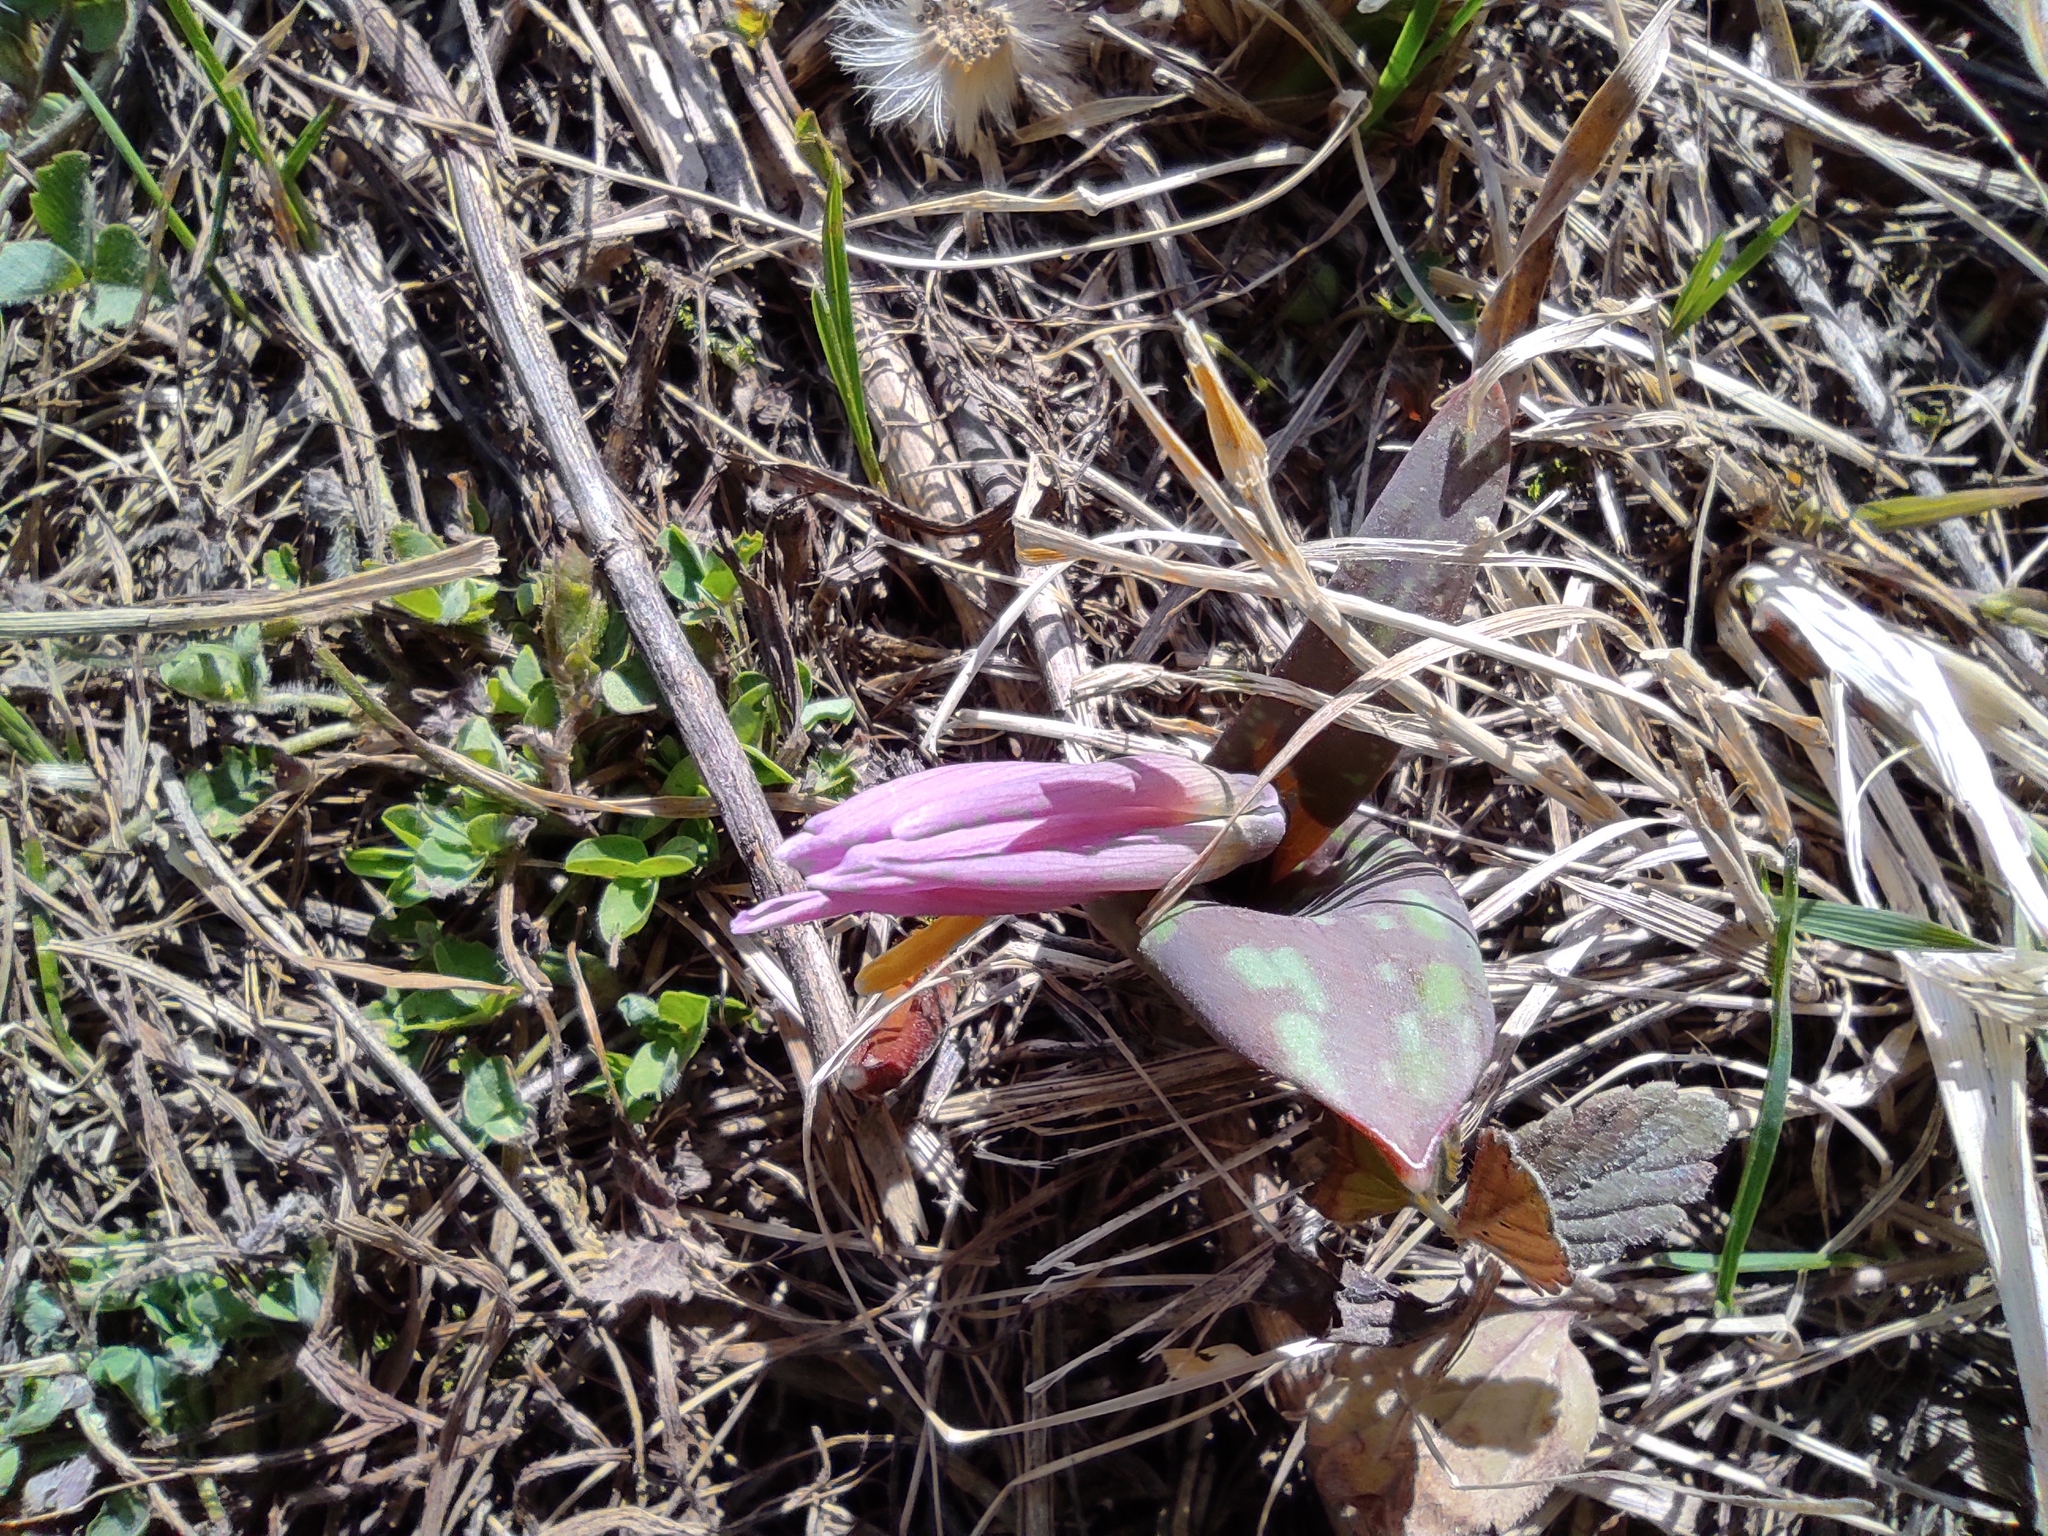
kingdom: Plantae
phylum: Tracheophyta
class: Liliopsida
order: Liliales
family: Liliaceae
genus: Erythronium
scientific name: Erythronium sibiricum
